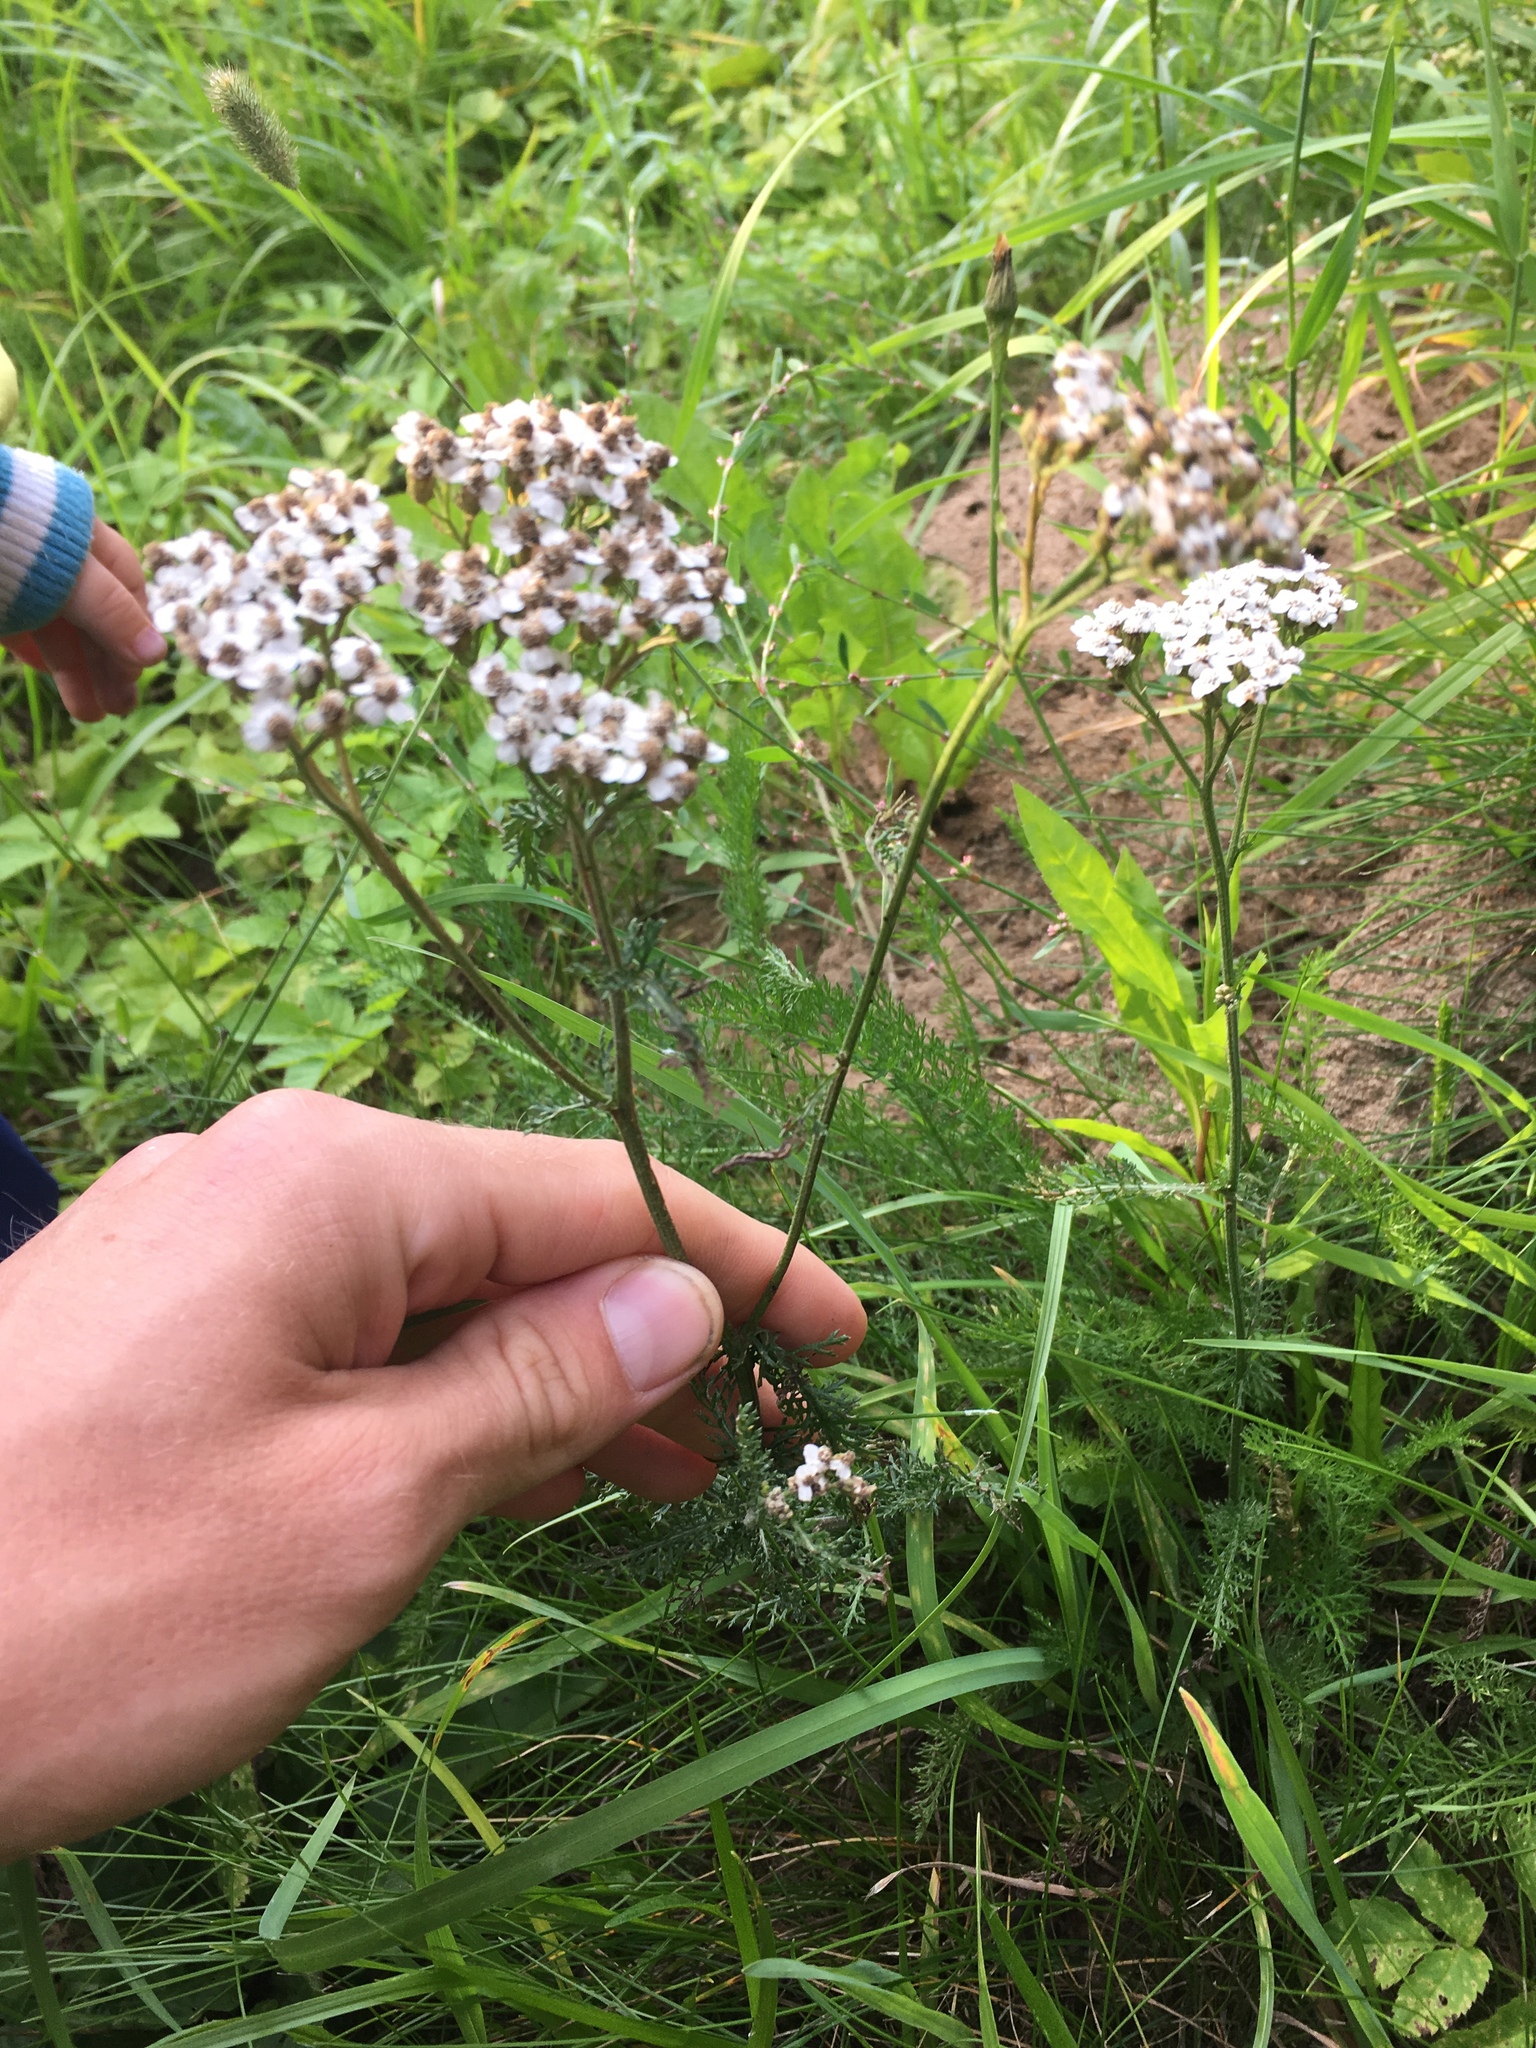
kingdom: Plantae
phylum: Tracheophyta
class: Magnoliopsida
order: Asterales
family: Asteraceae
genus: Achillea
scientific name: Achillea millefolium
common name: Yarrow
